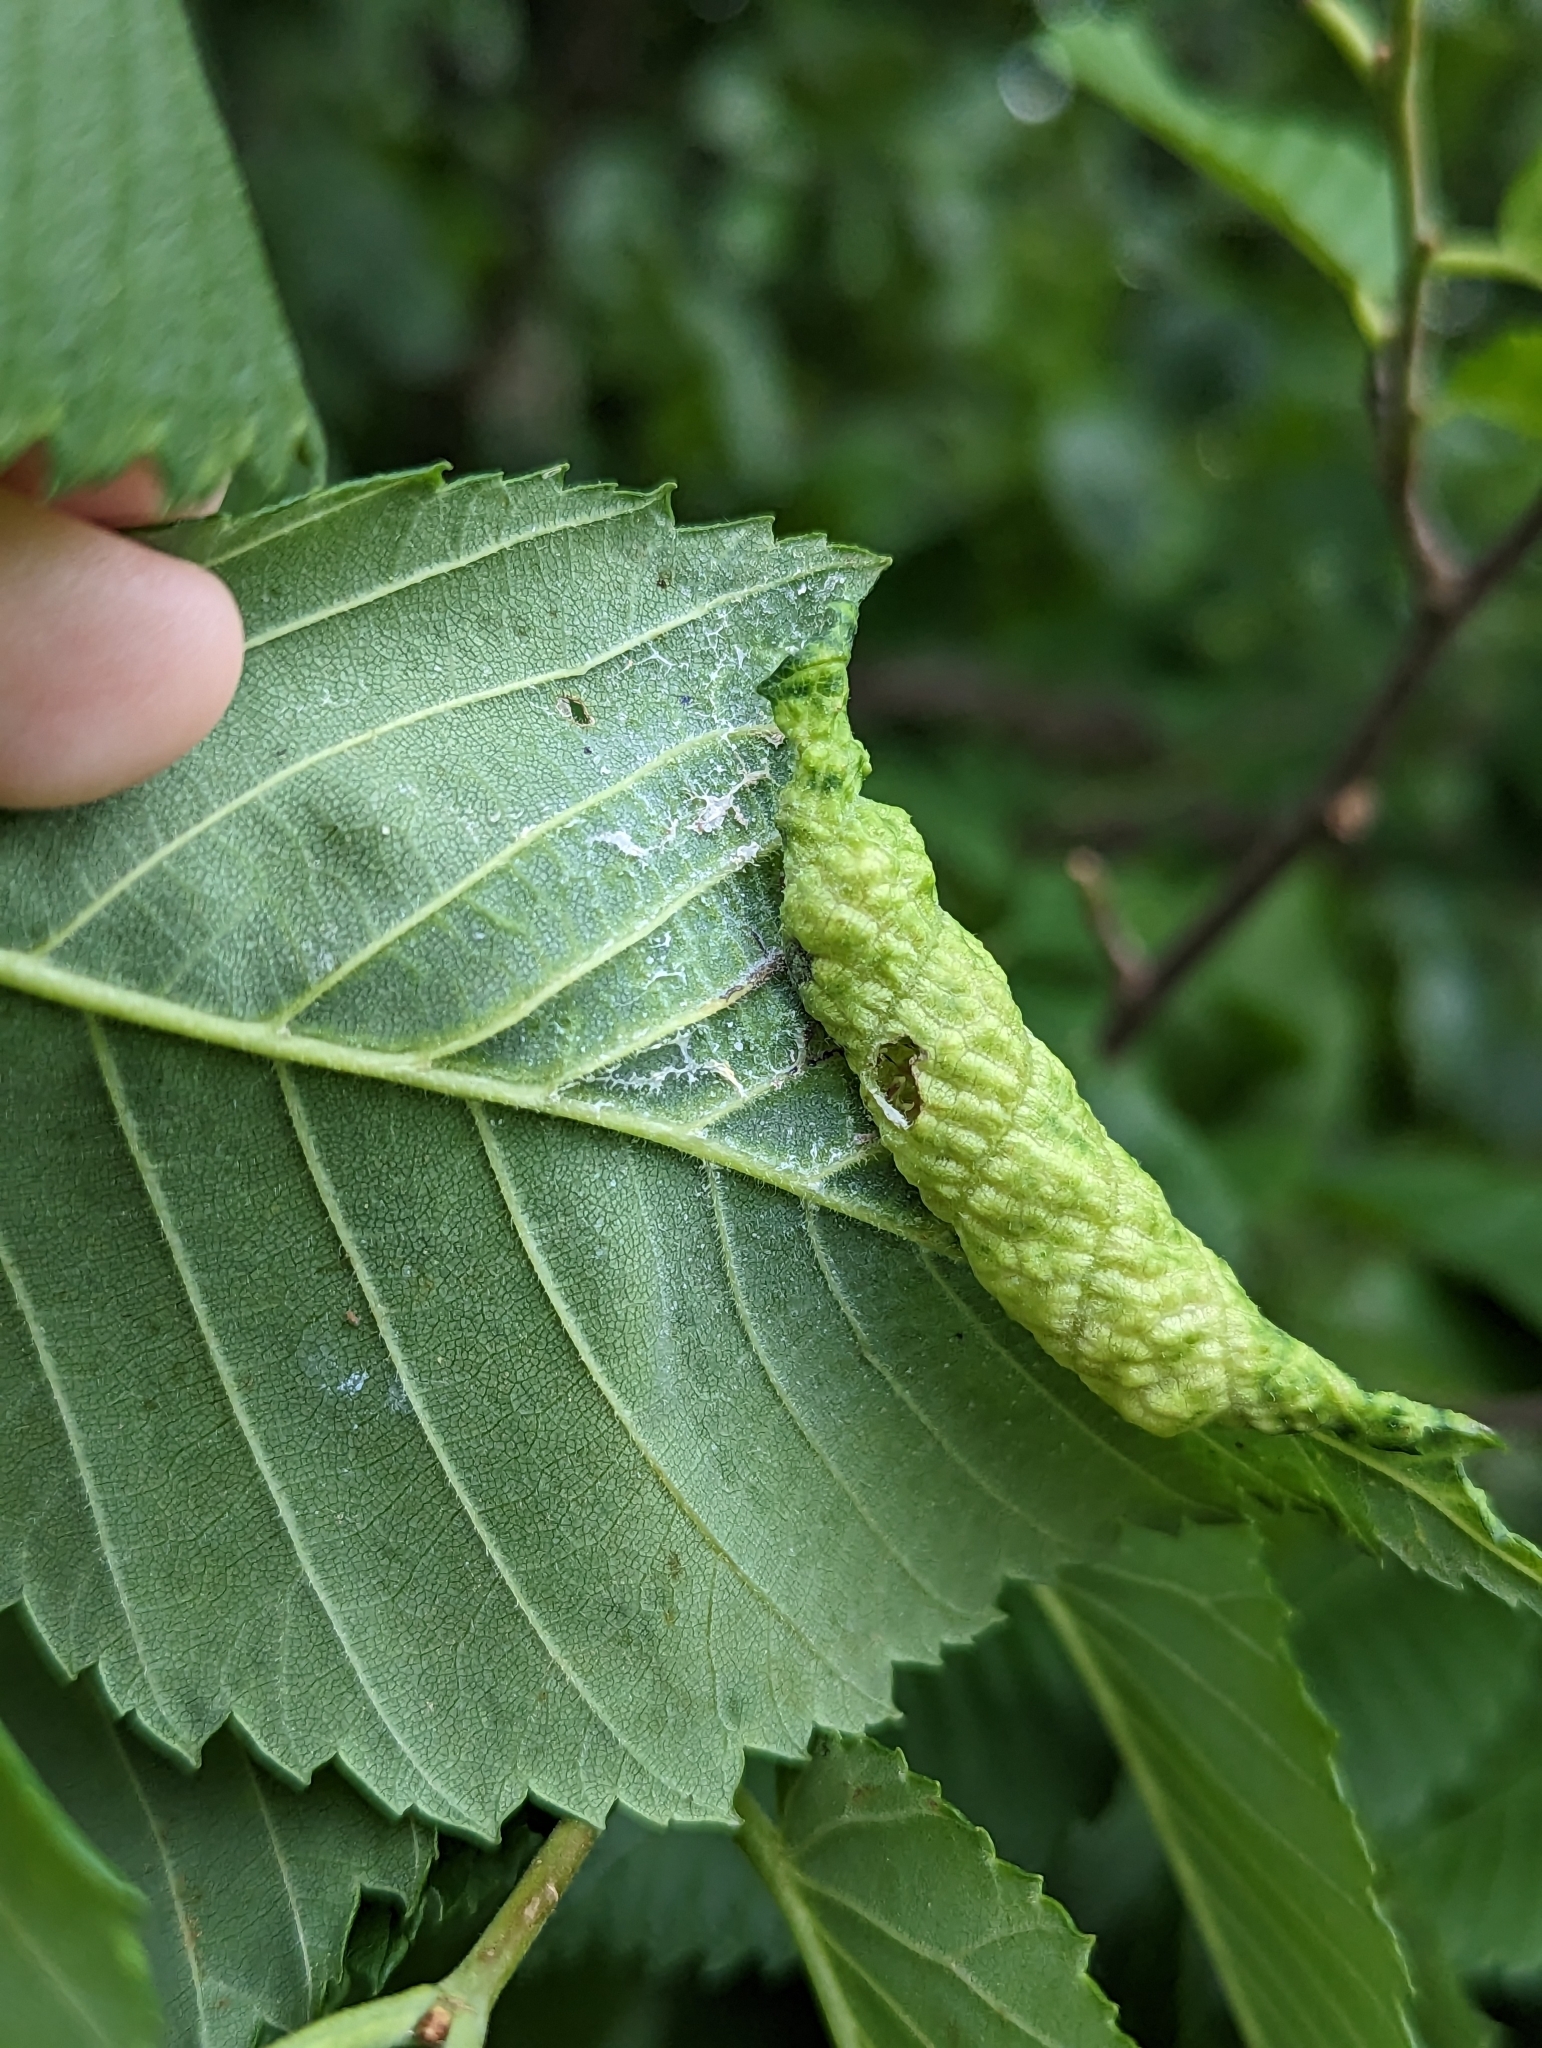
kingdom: Animalia
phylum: Arthropoda
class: Insecta
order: Hemiptera
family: Aphididae
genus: Eriosoma
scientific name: Eriosoma americanum
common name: Woolly elm aphid
